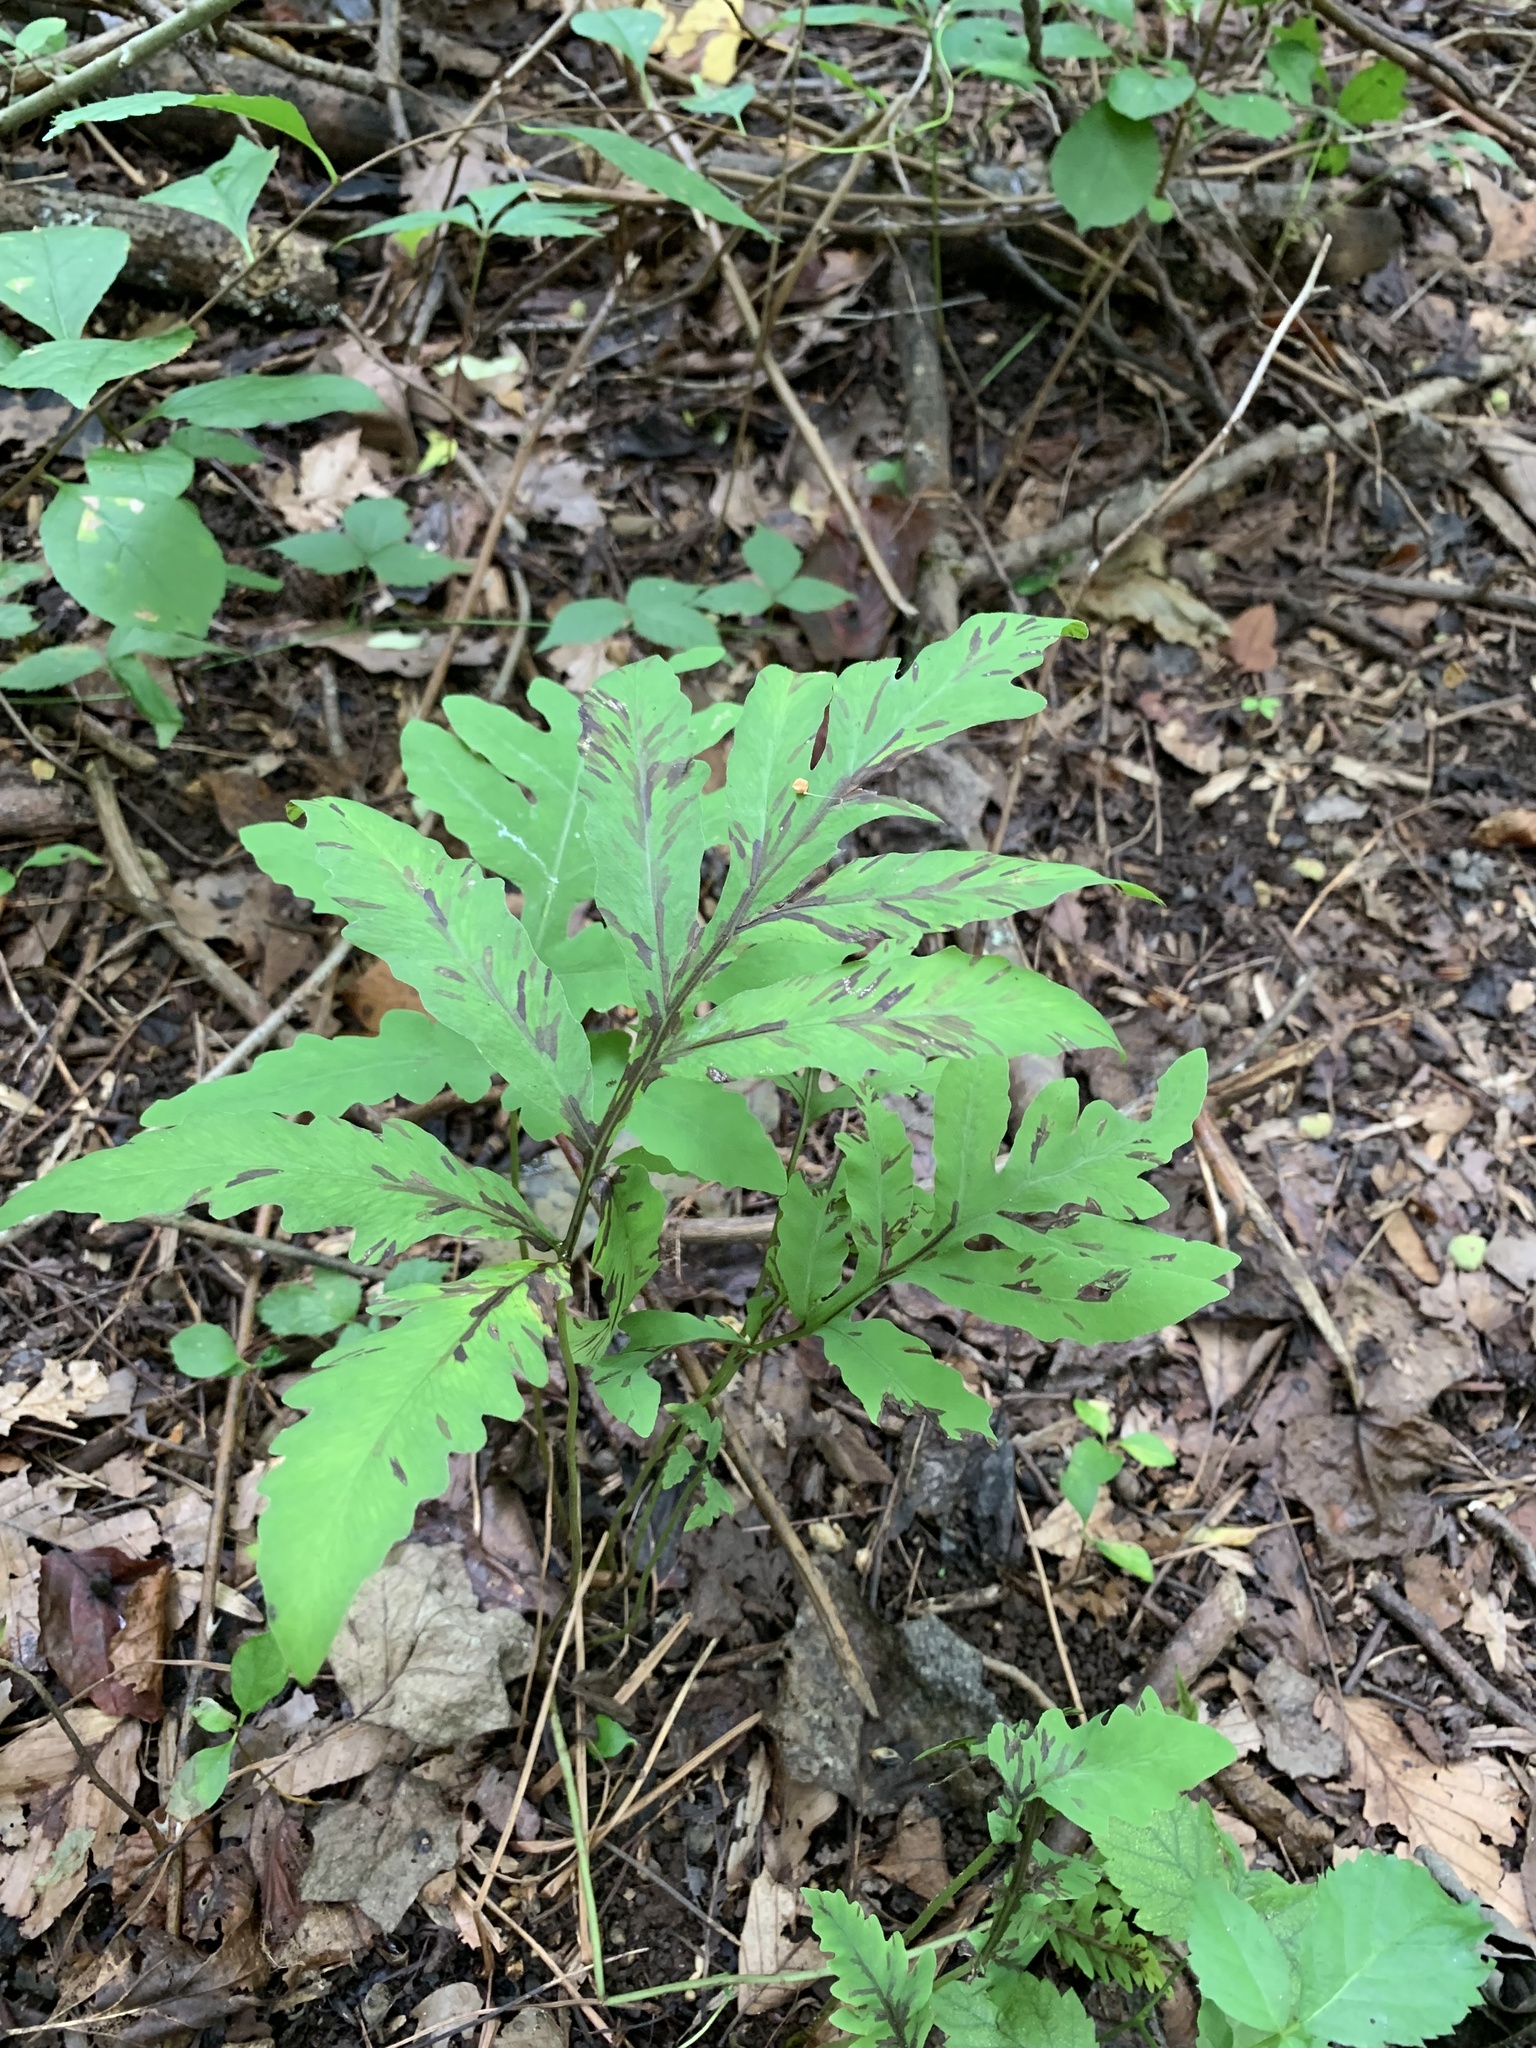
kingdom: Plantae
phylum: Tracheophyta
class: Polypodiopsida
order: Polypodiales
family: Onocleaceae
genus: Onoclea
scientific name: Onoclea sensibilis
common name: Sensitive fern
